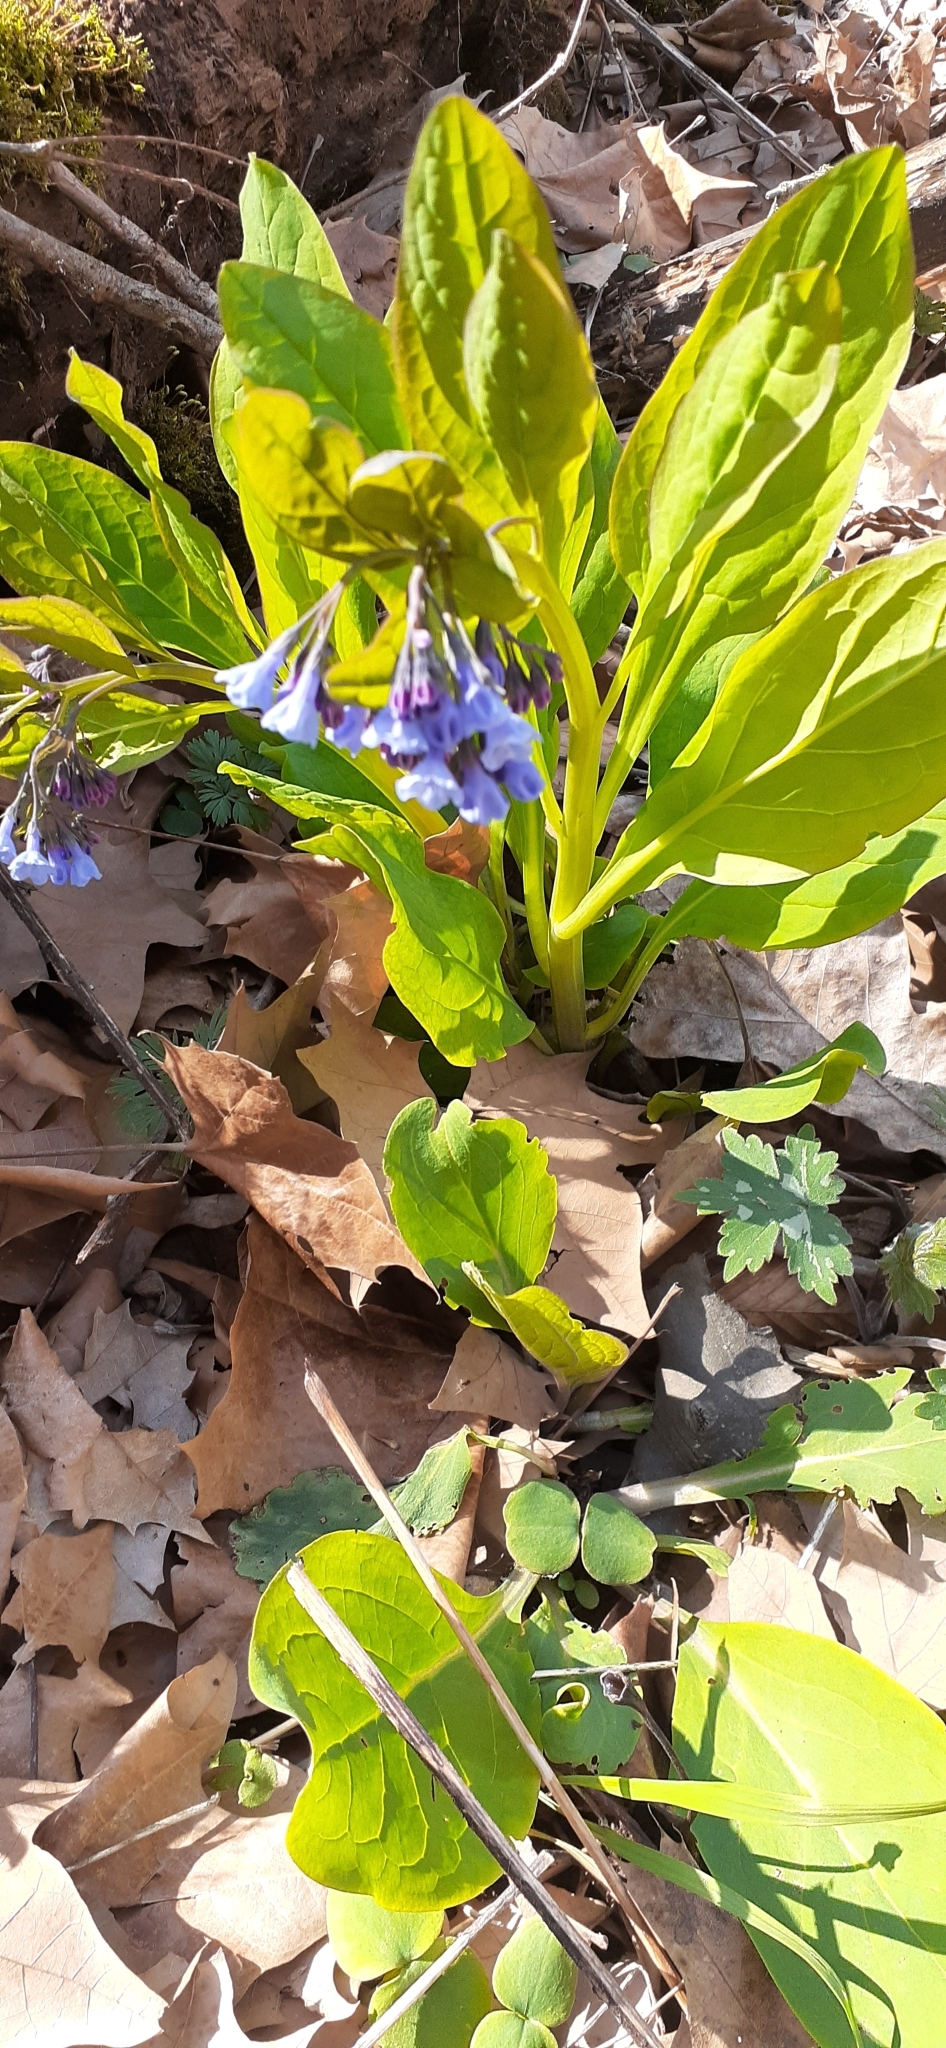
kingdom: Plantae
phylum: Tracheophyta
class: Magnoliopsida
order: Boraginales
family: Boraginaceae
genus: Mertensia
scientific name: Mertensia virginica
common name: Virginia bluebells
